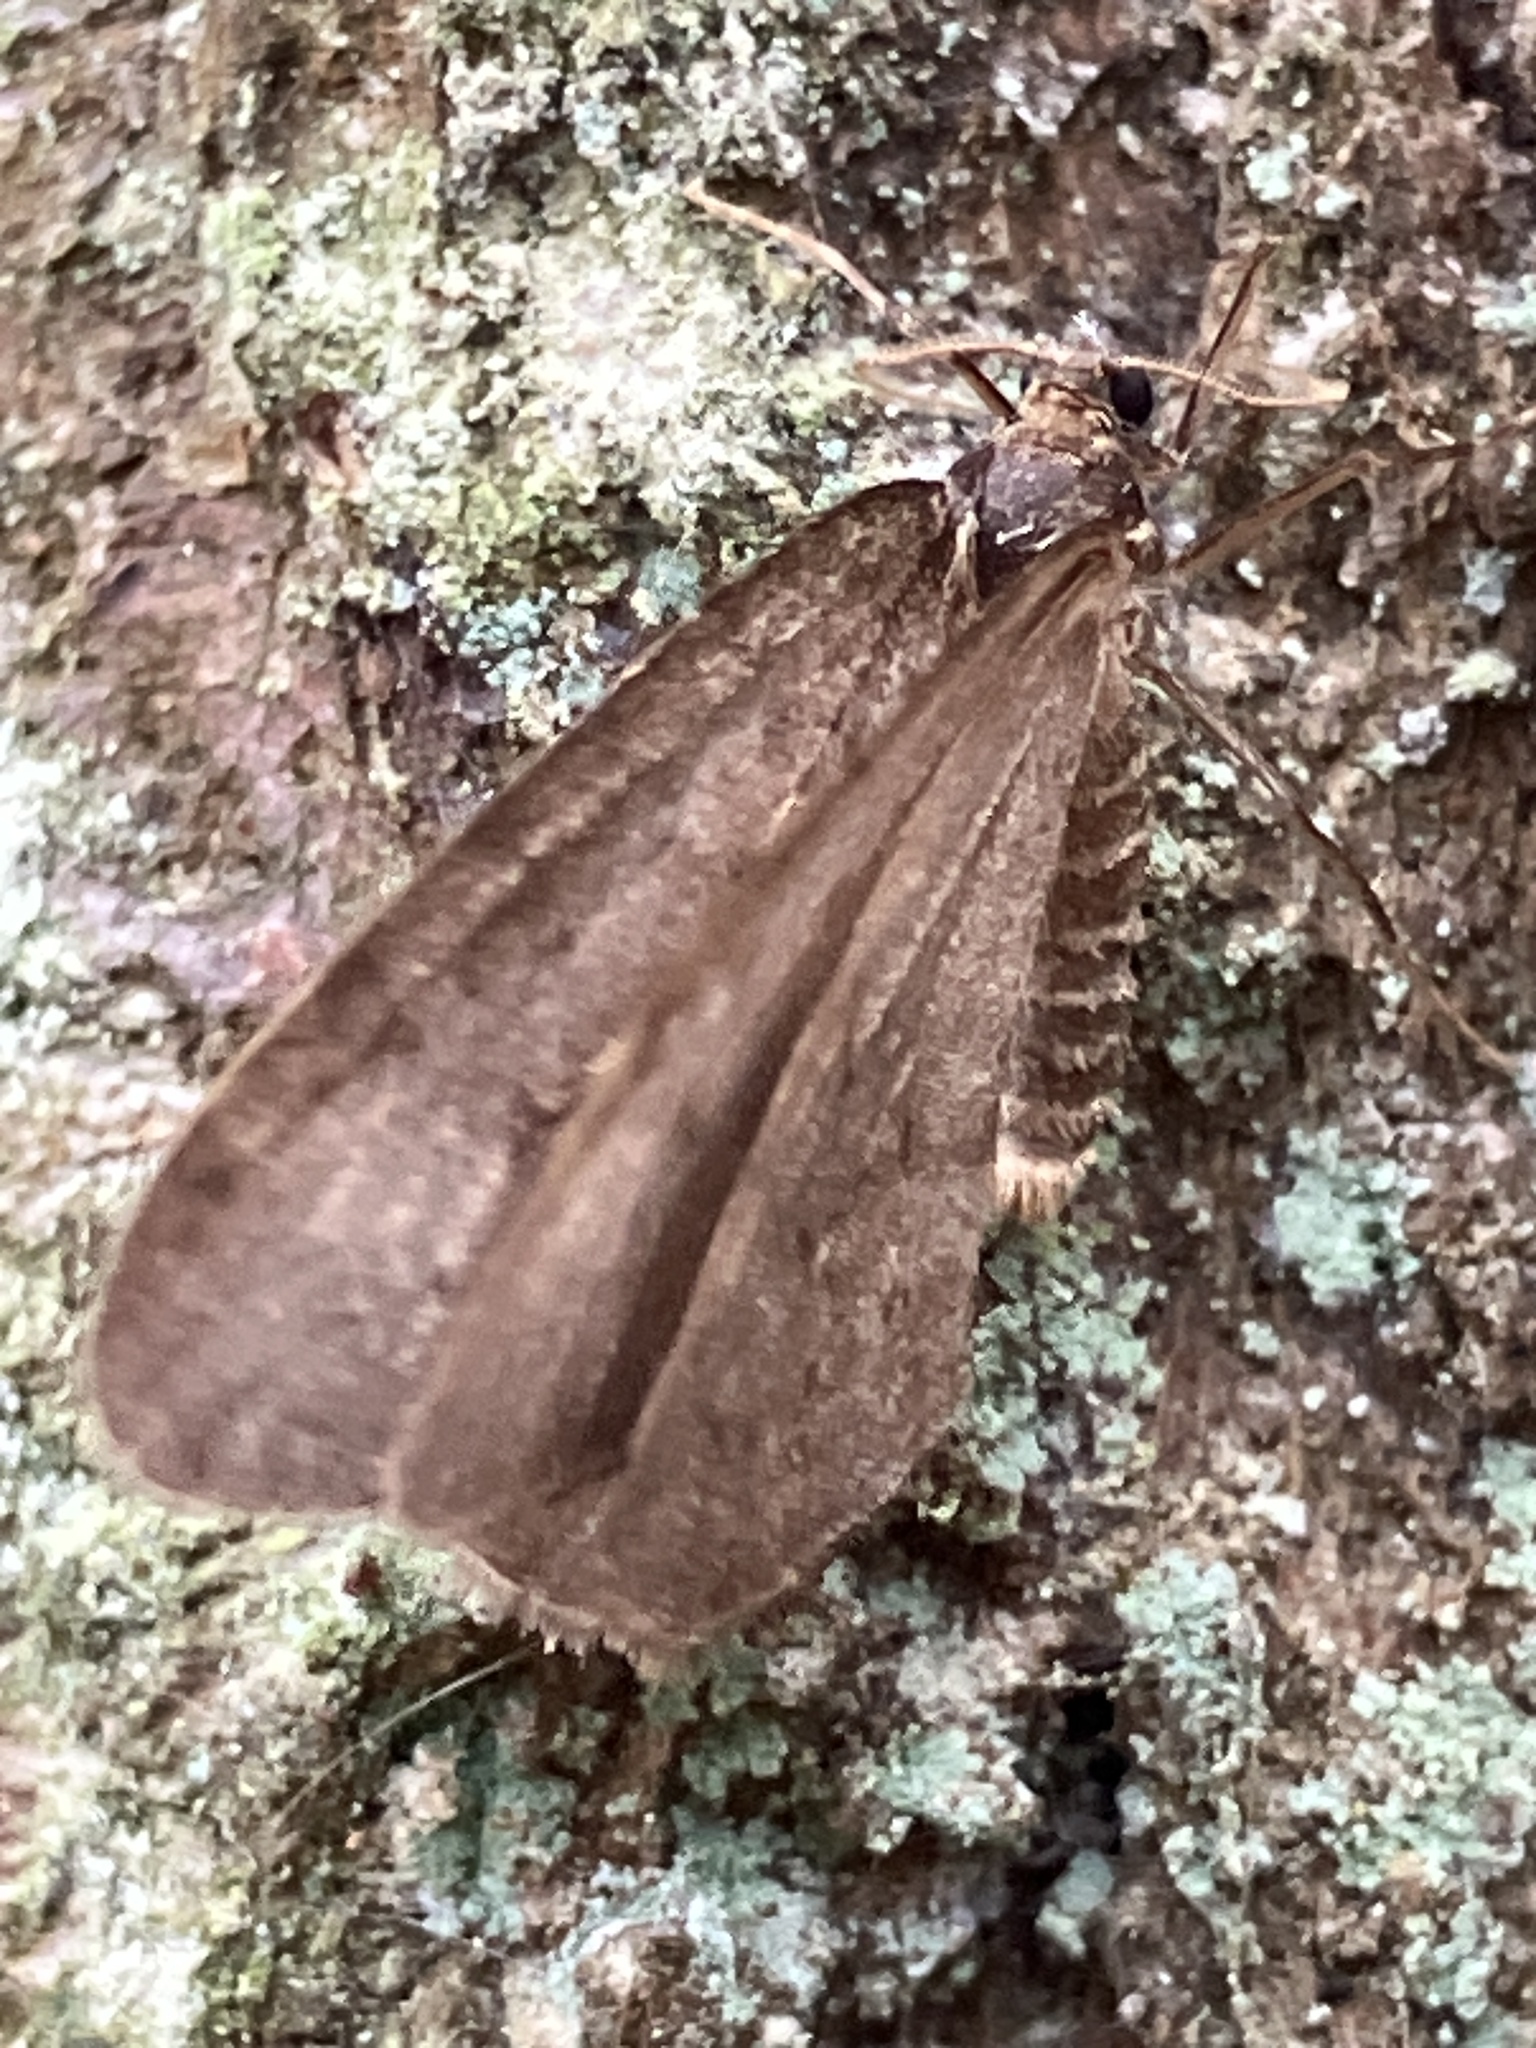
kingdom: Animalia
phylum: Arthropoda
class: Insecta
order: Lepidoptera
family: Geometridae
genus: Operophtera
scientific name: Operophtera brumata
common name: Winter moth
